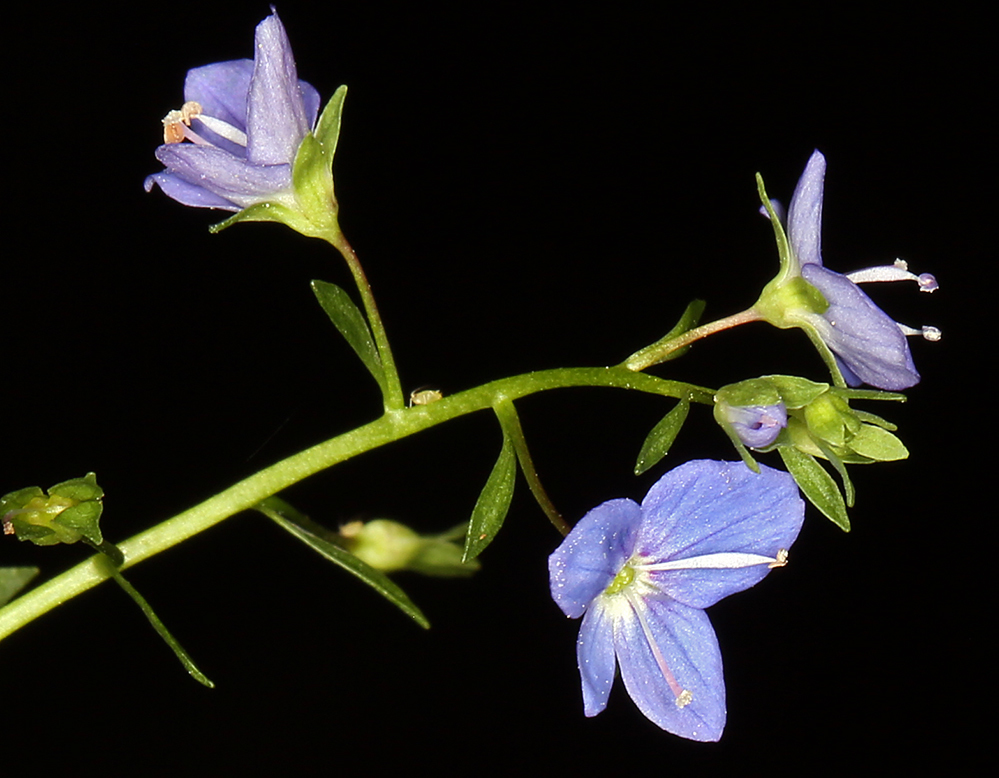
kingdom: Plantae
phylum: Tracheophyta
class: Magnoliopsida
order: Lamiales
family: Plantaginaceae
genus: Veronica
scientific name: Veronica americana
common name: American brooklime
